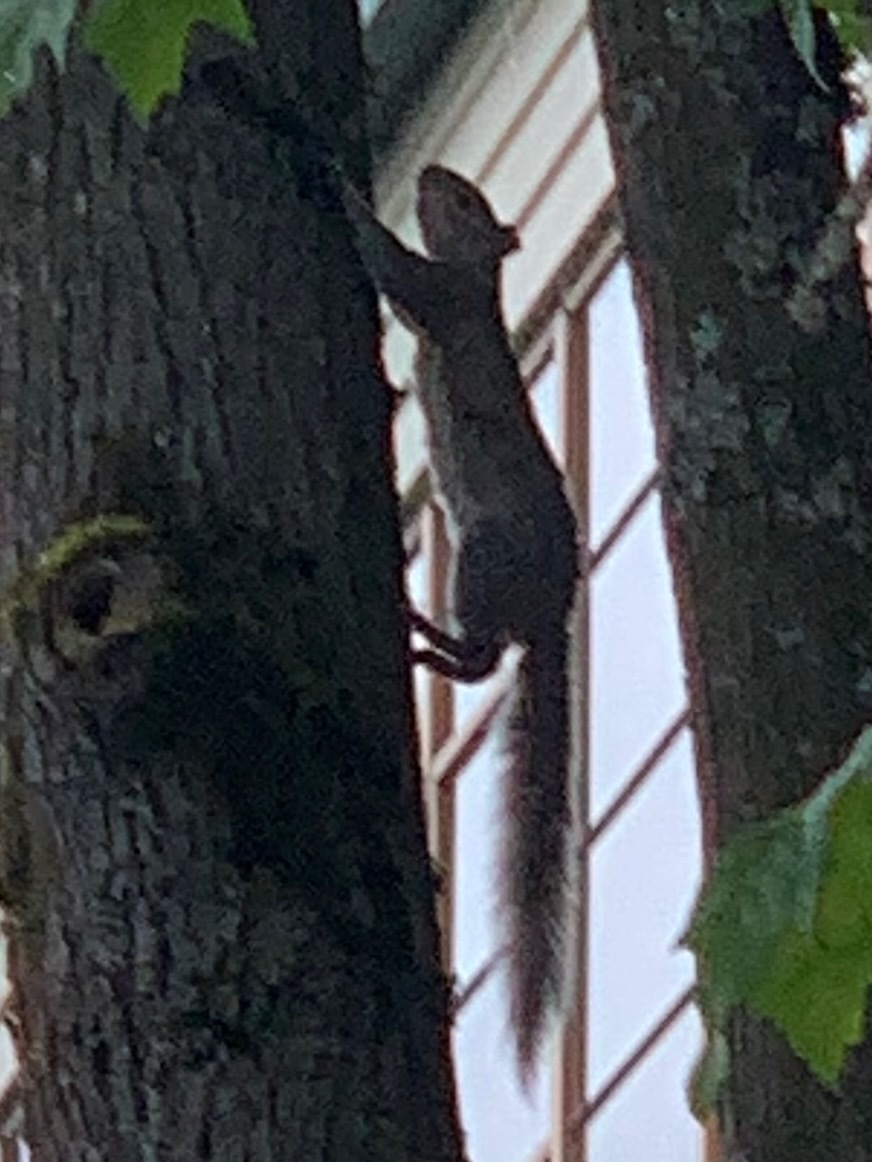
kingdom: Animalia
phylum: Chordata
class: Mammalia
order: Rodentia
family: Sciuridae
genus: Sciurus
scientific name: Sciurus carolinensis
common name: Eastern gray squirrel
